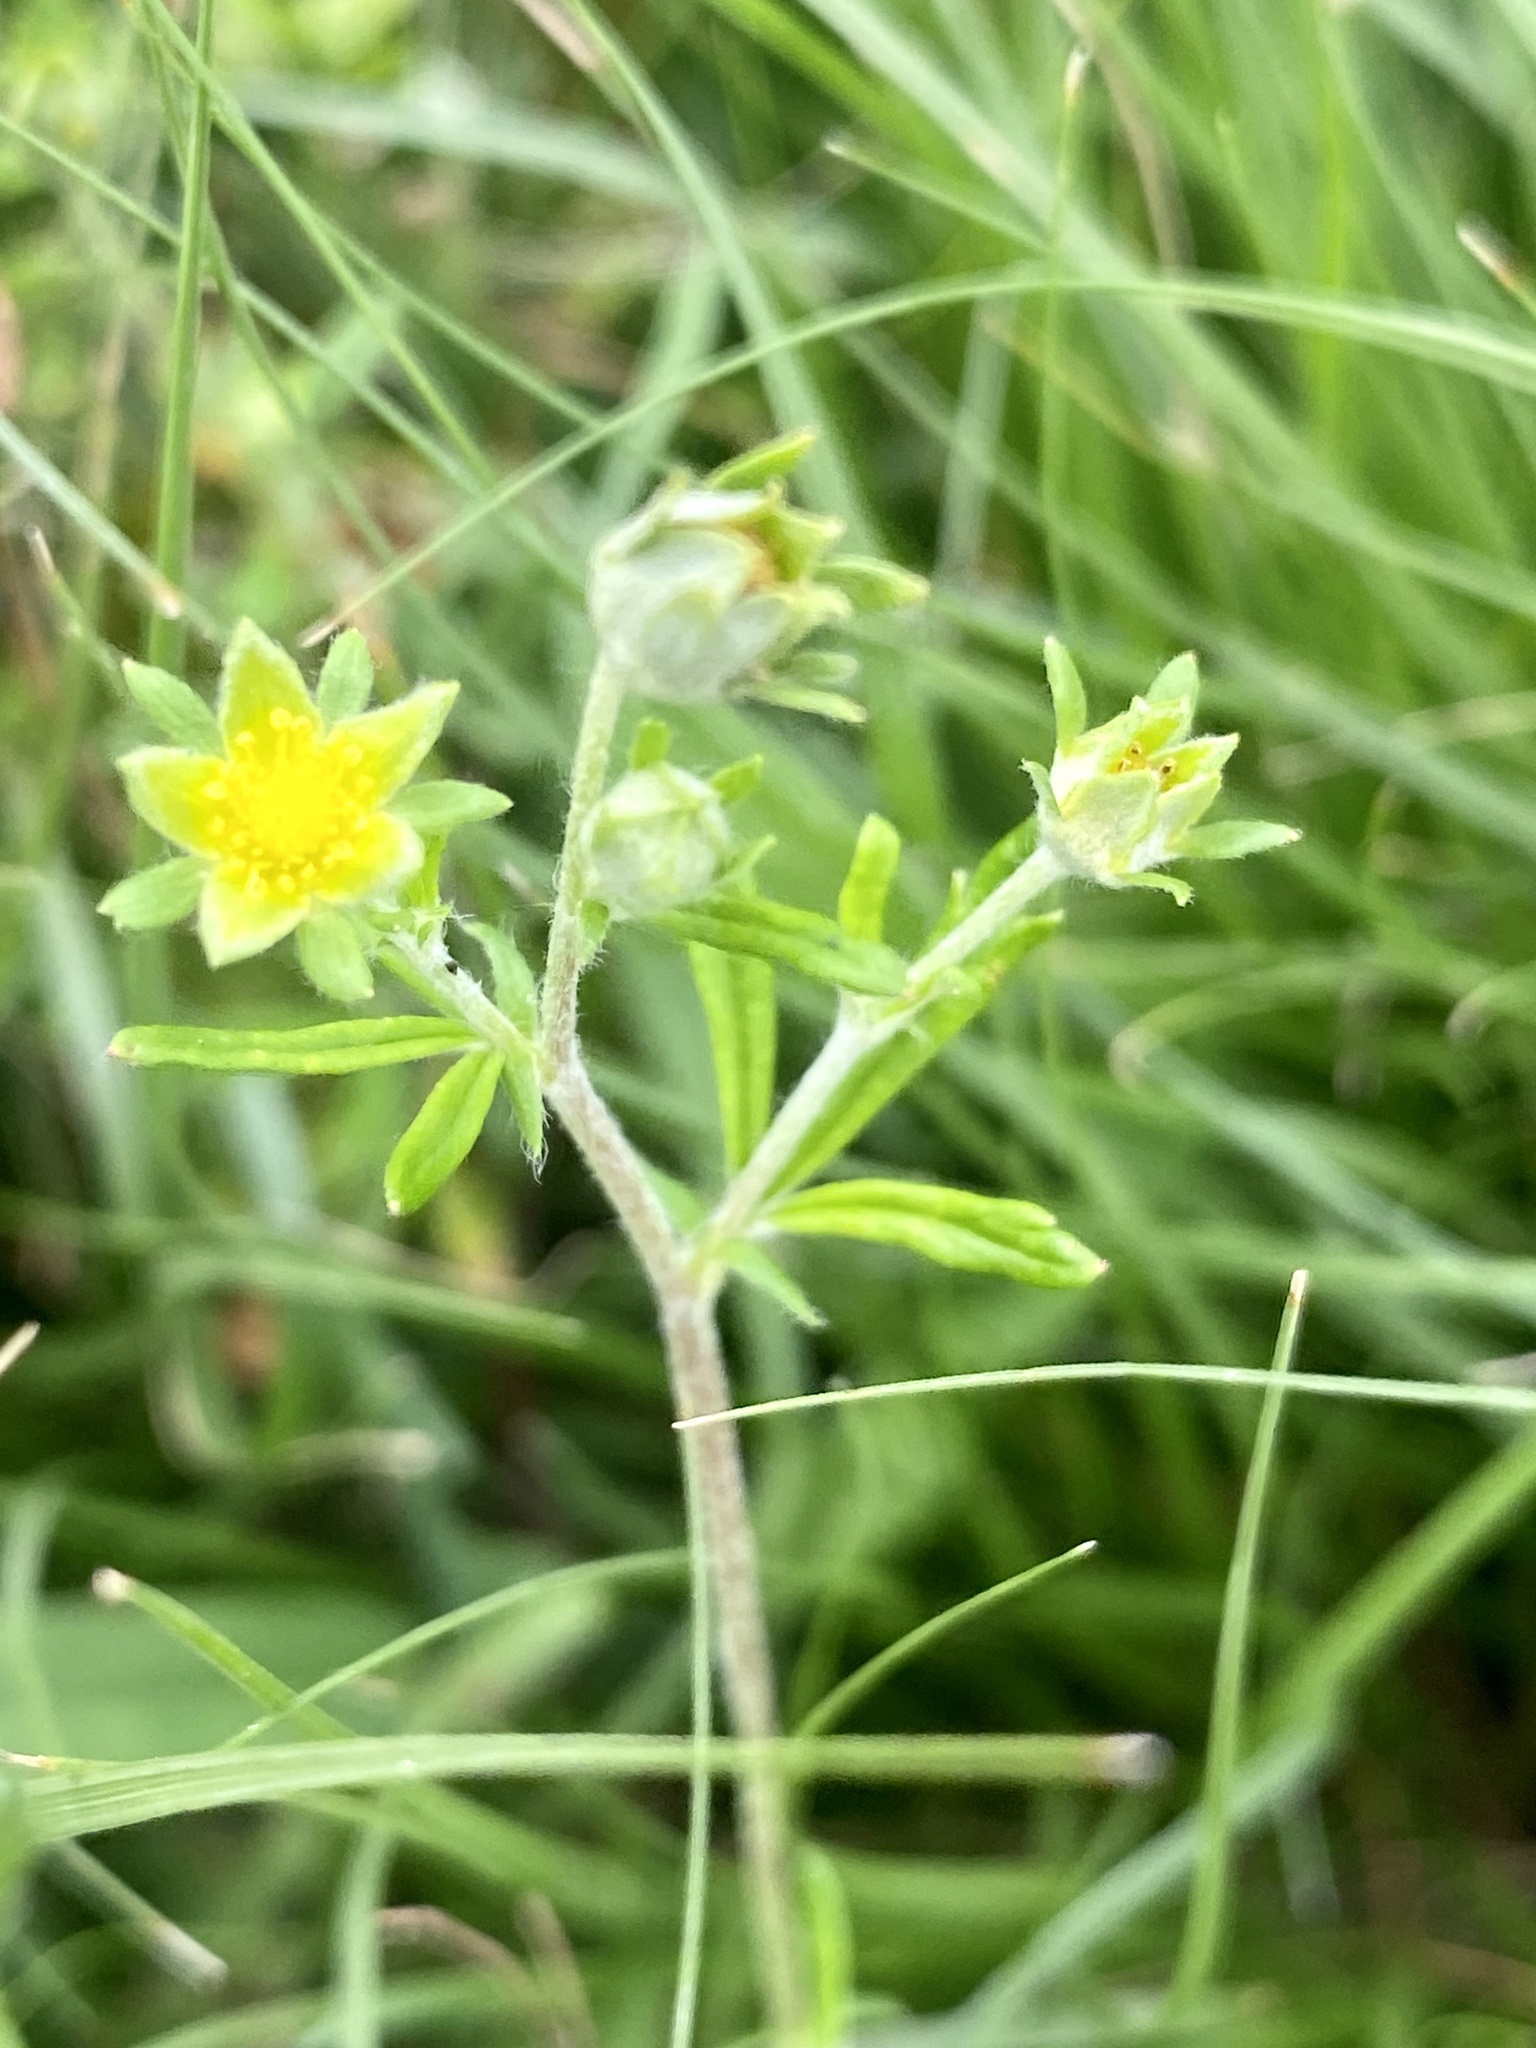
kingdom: Plantae
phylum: Tracheophyta
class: Magnoliopsida
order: Rosales
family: Rosaceae
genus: Potentilla
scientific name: Potentilla argentea
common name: Hoary cinquefoil
